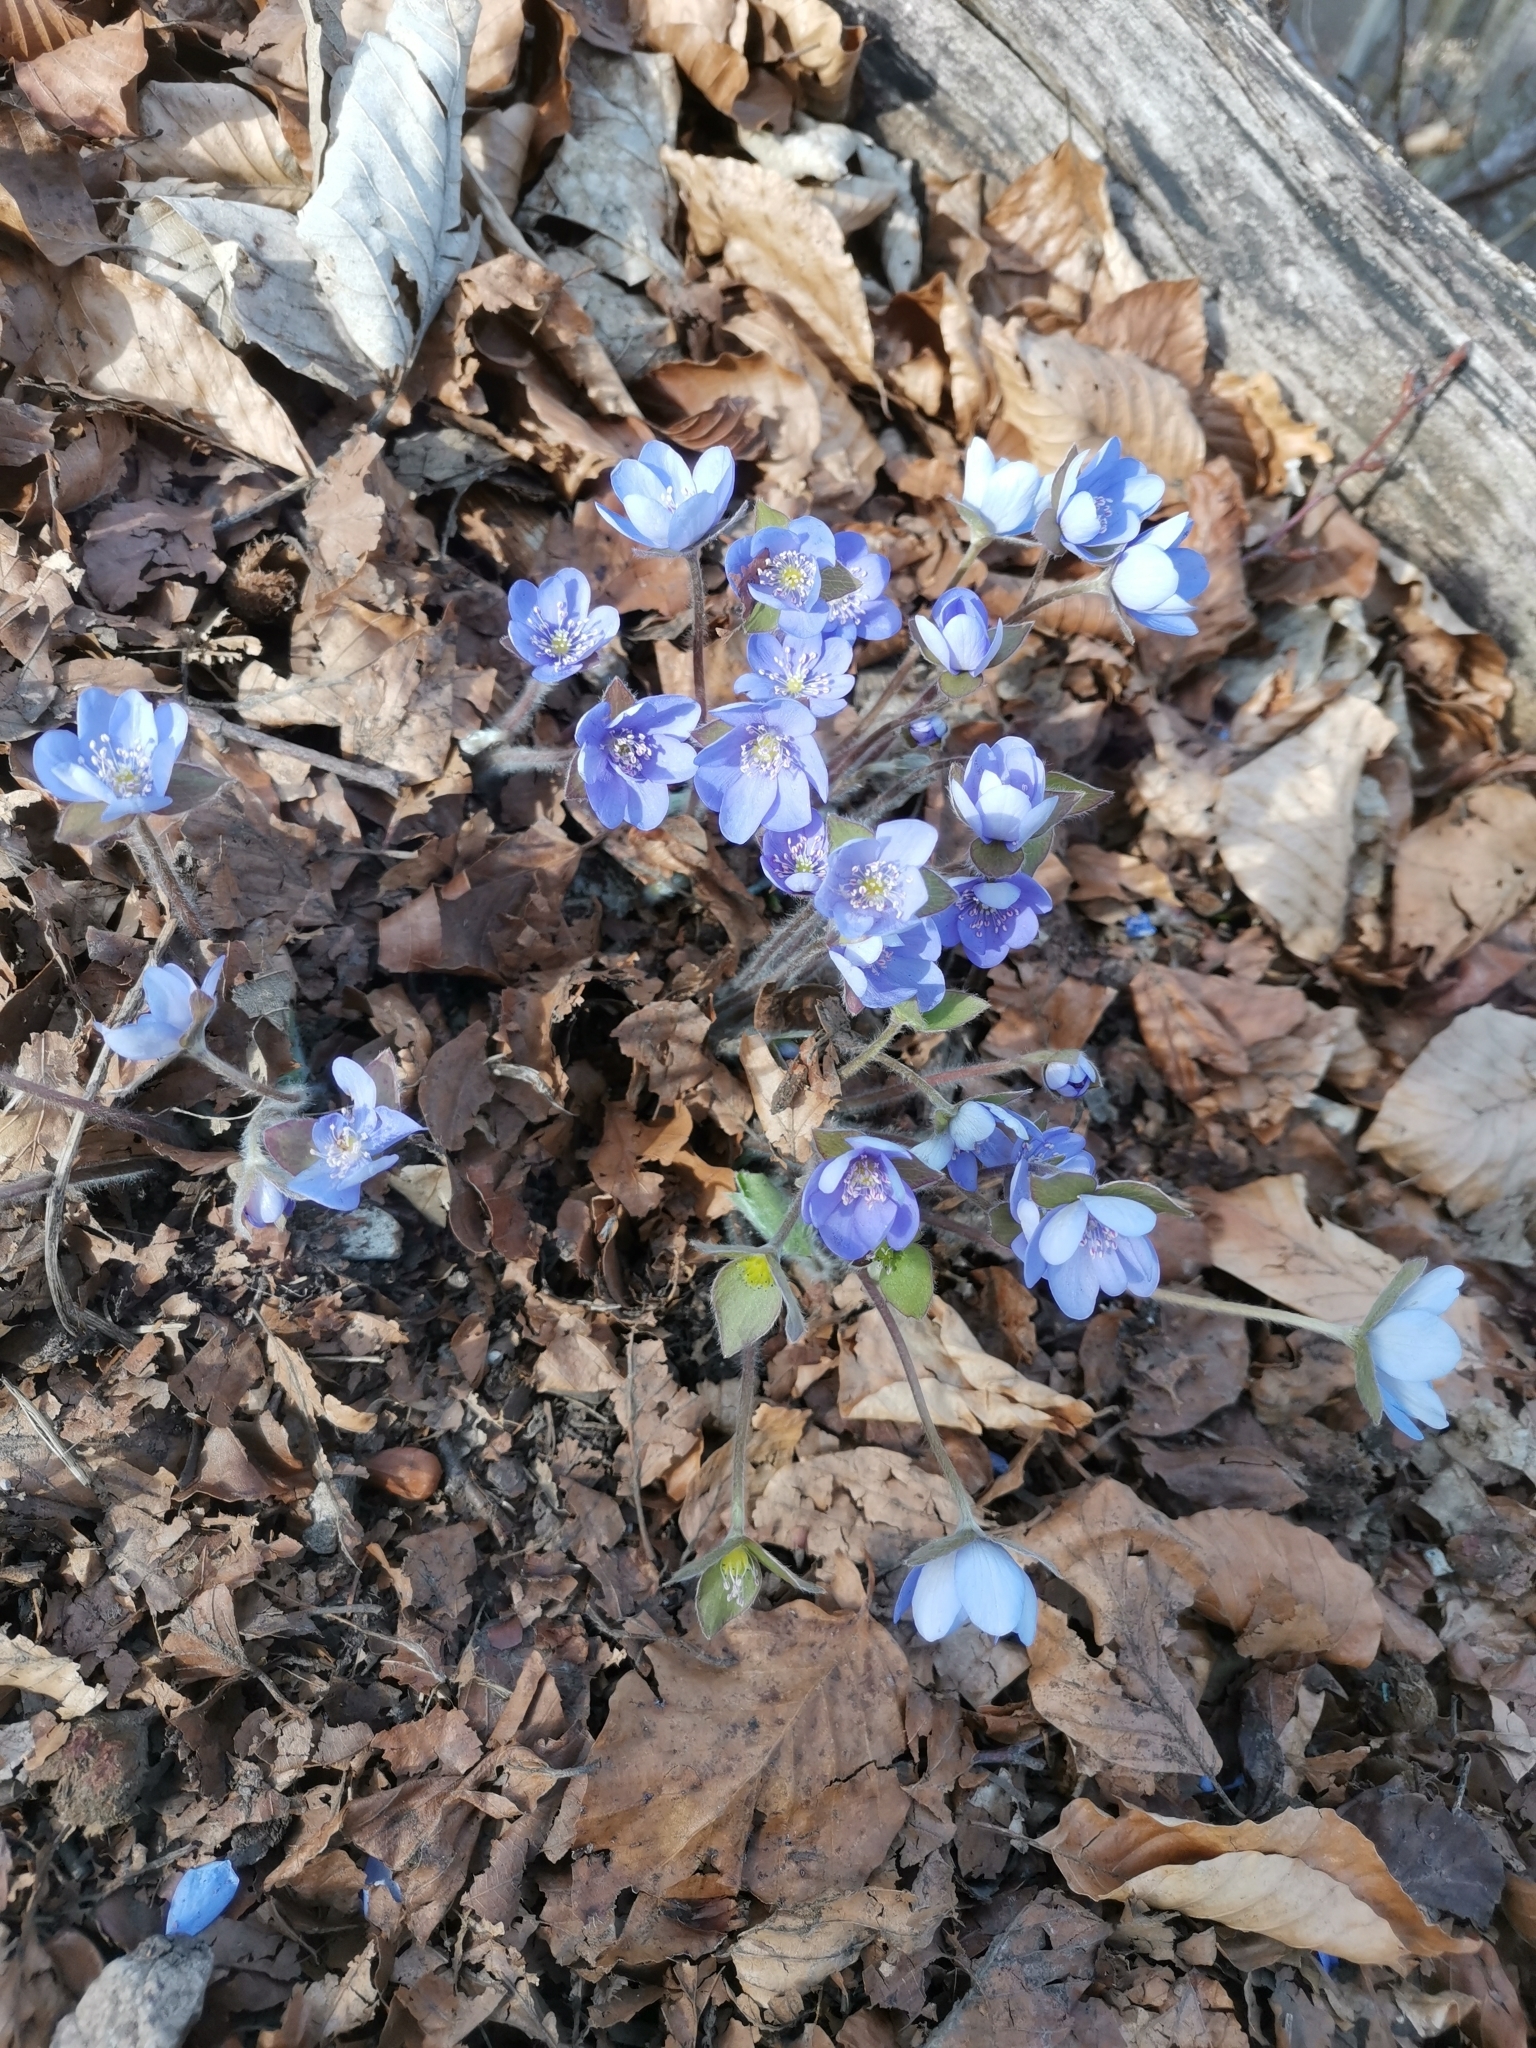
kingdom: Plantae
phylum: Tracheophyta
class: Magnoliopsida
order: Ranunculales
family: Ranunculaceae
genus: Hepatica
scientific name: Hepatica nobilis
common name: Liverleaf
